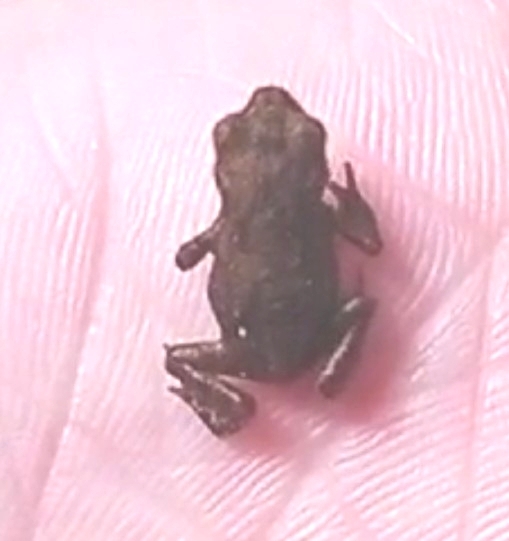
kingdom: Animalia
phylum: Chordata
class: Amphibia
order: Anura
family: Bufonidae
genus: Bufo
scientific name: Bufo bufo
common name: Common toad
